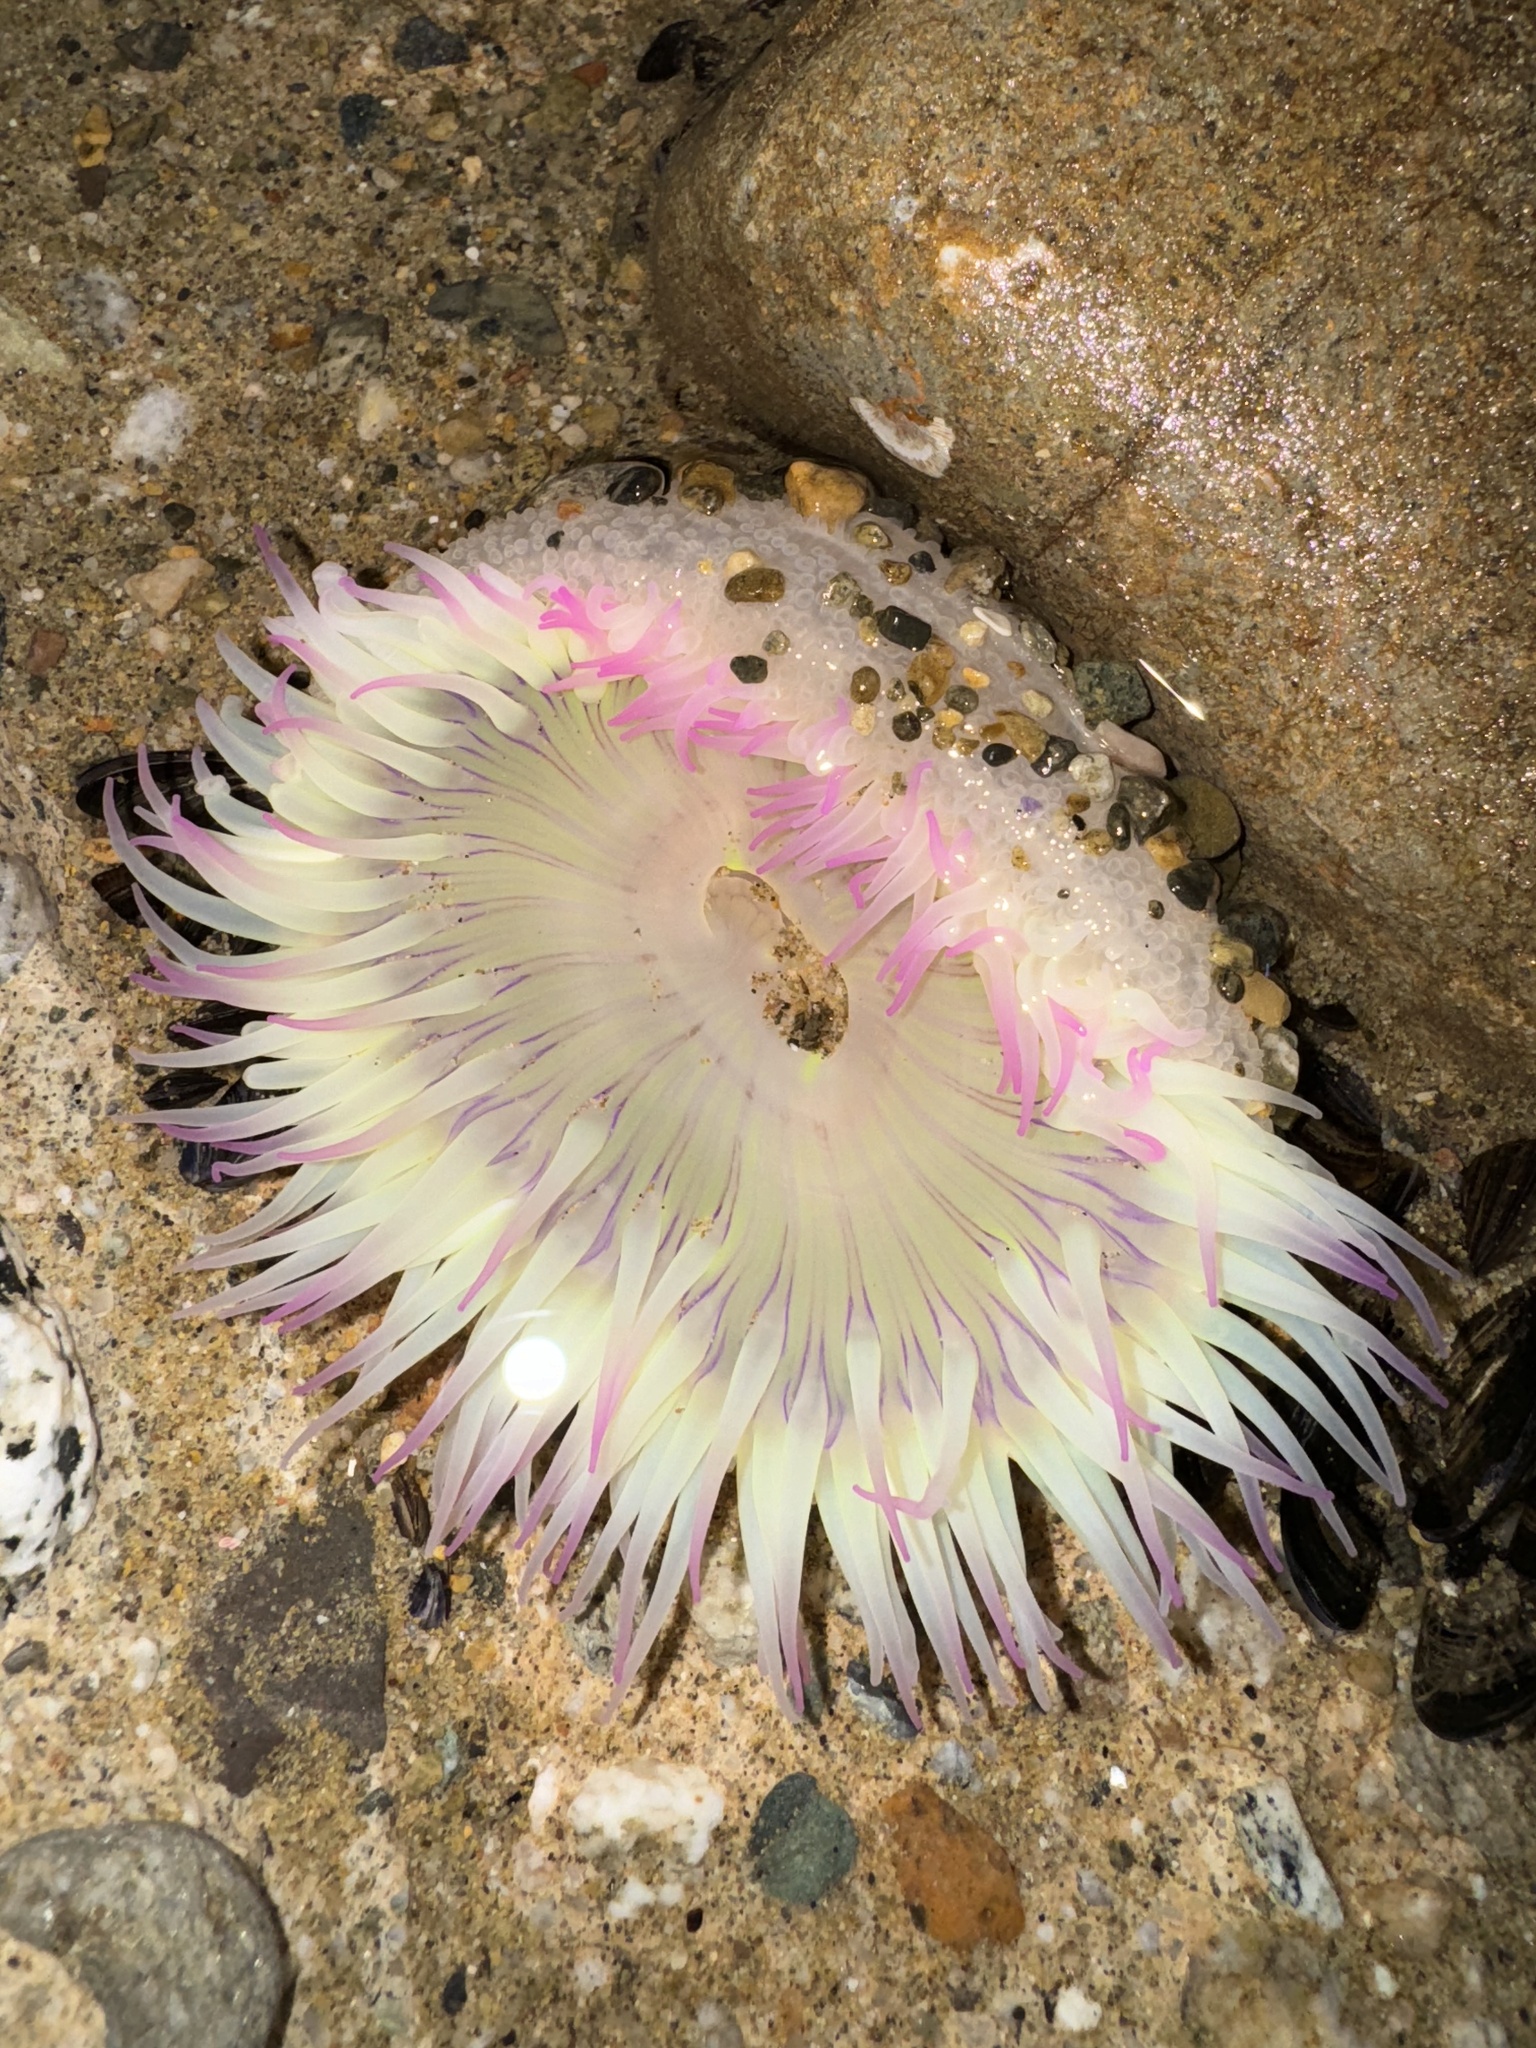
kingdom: Animalia
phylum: Cnidaria
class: Anthozoa
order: Actiniaria
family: Actiniidae
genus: Anthopleura
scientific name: Anthopleura sola
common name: Sun anemone
